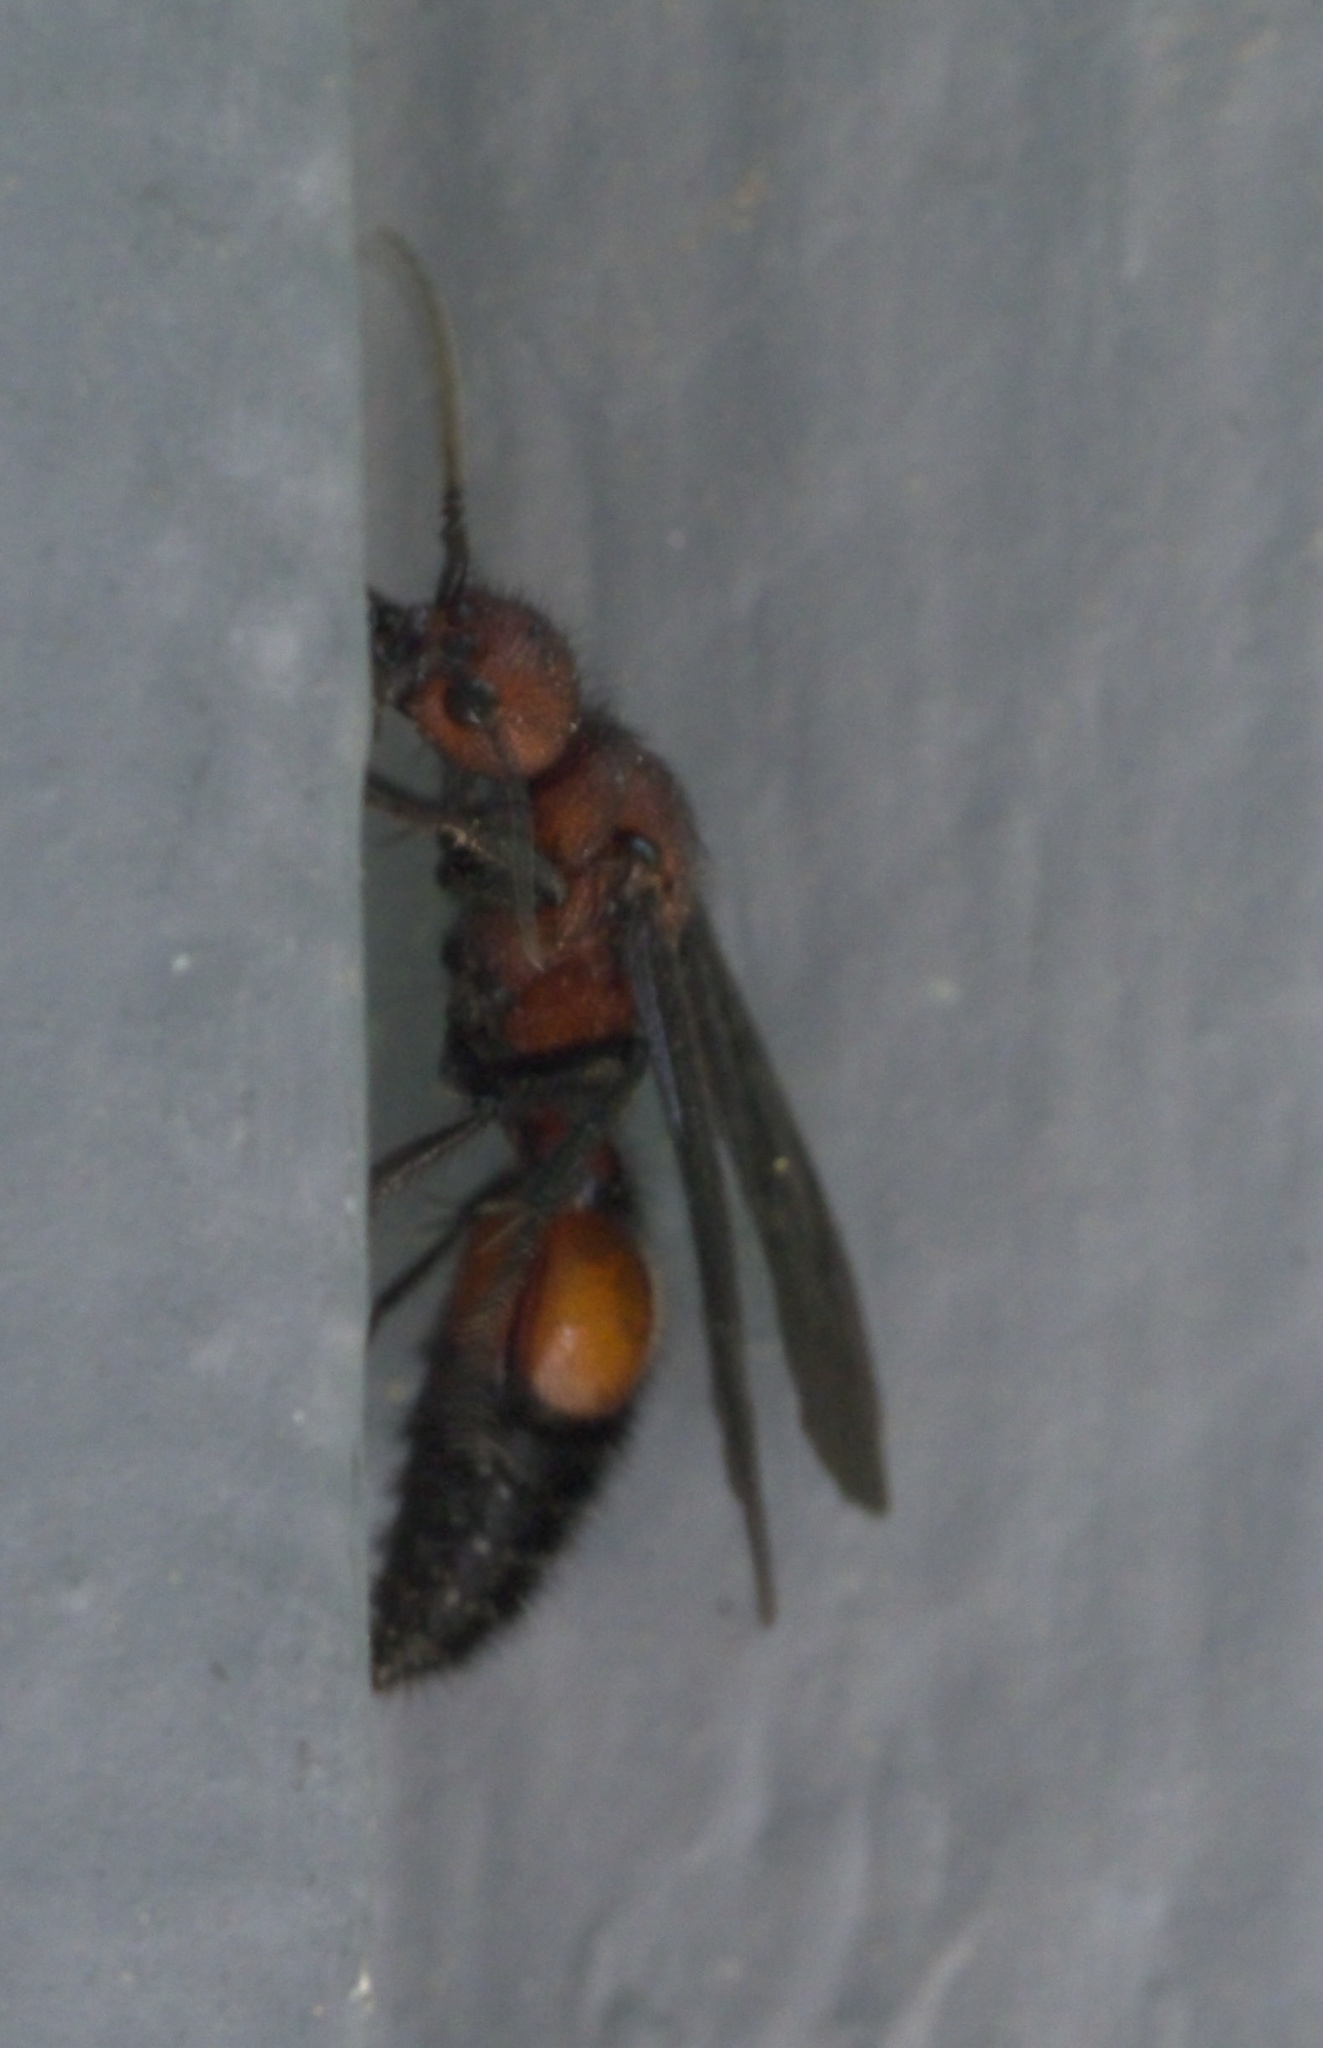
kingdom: Animalia
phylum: Arthropoda
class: Insecta
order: Hymenoptera
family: Mutillidae
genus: Sphaeropthalma
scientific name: Sphaeropthalma
